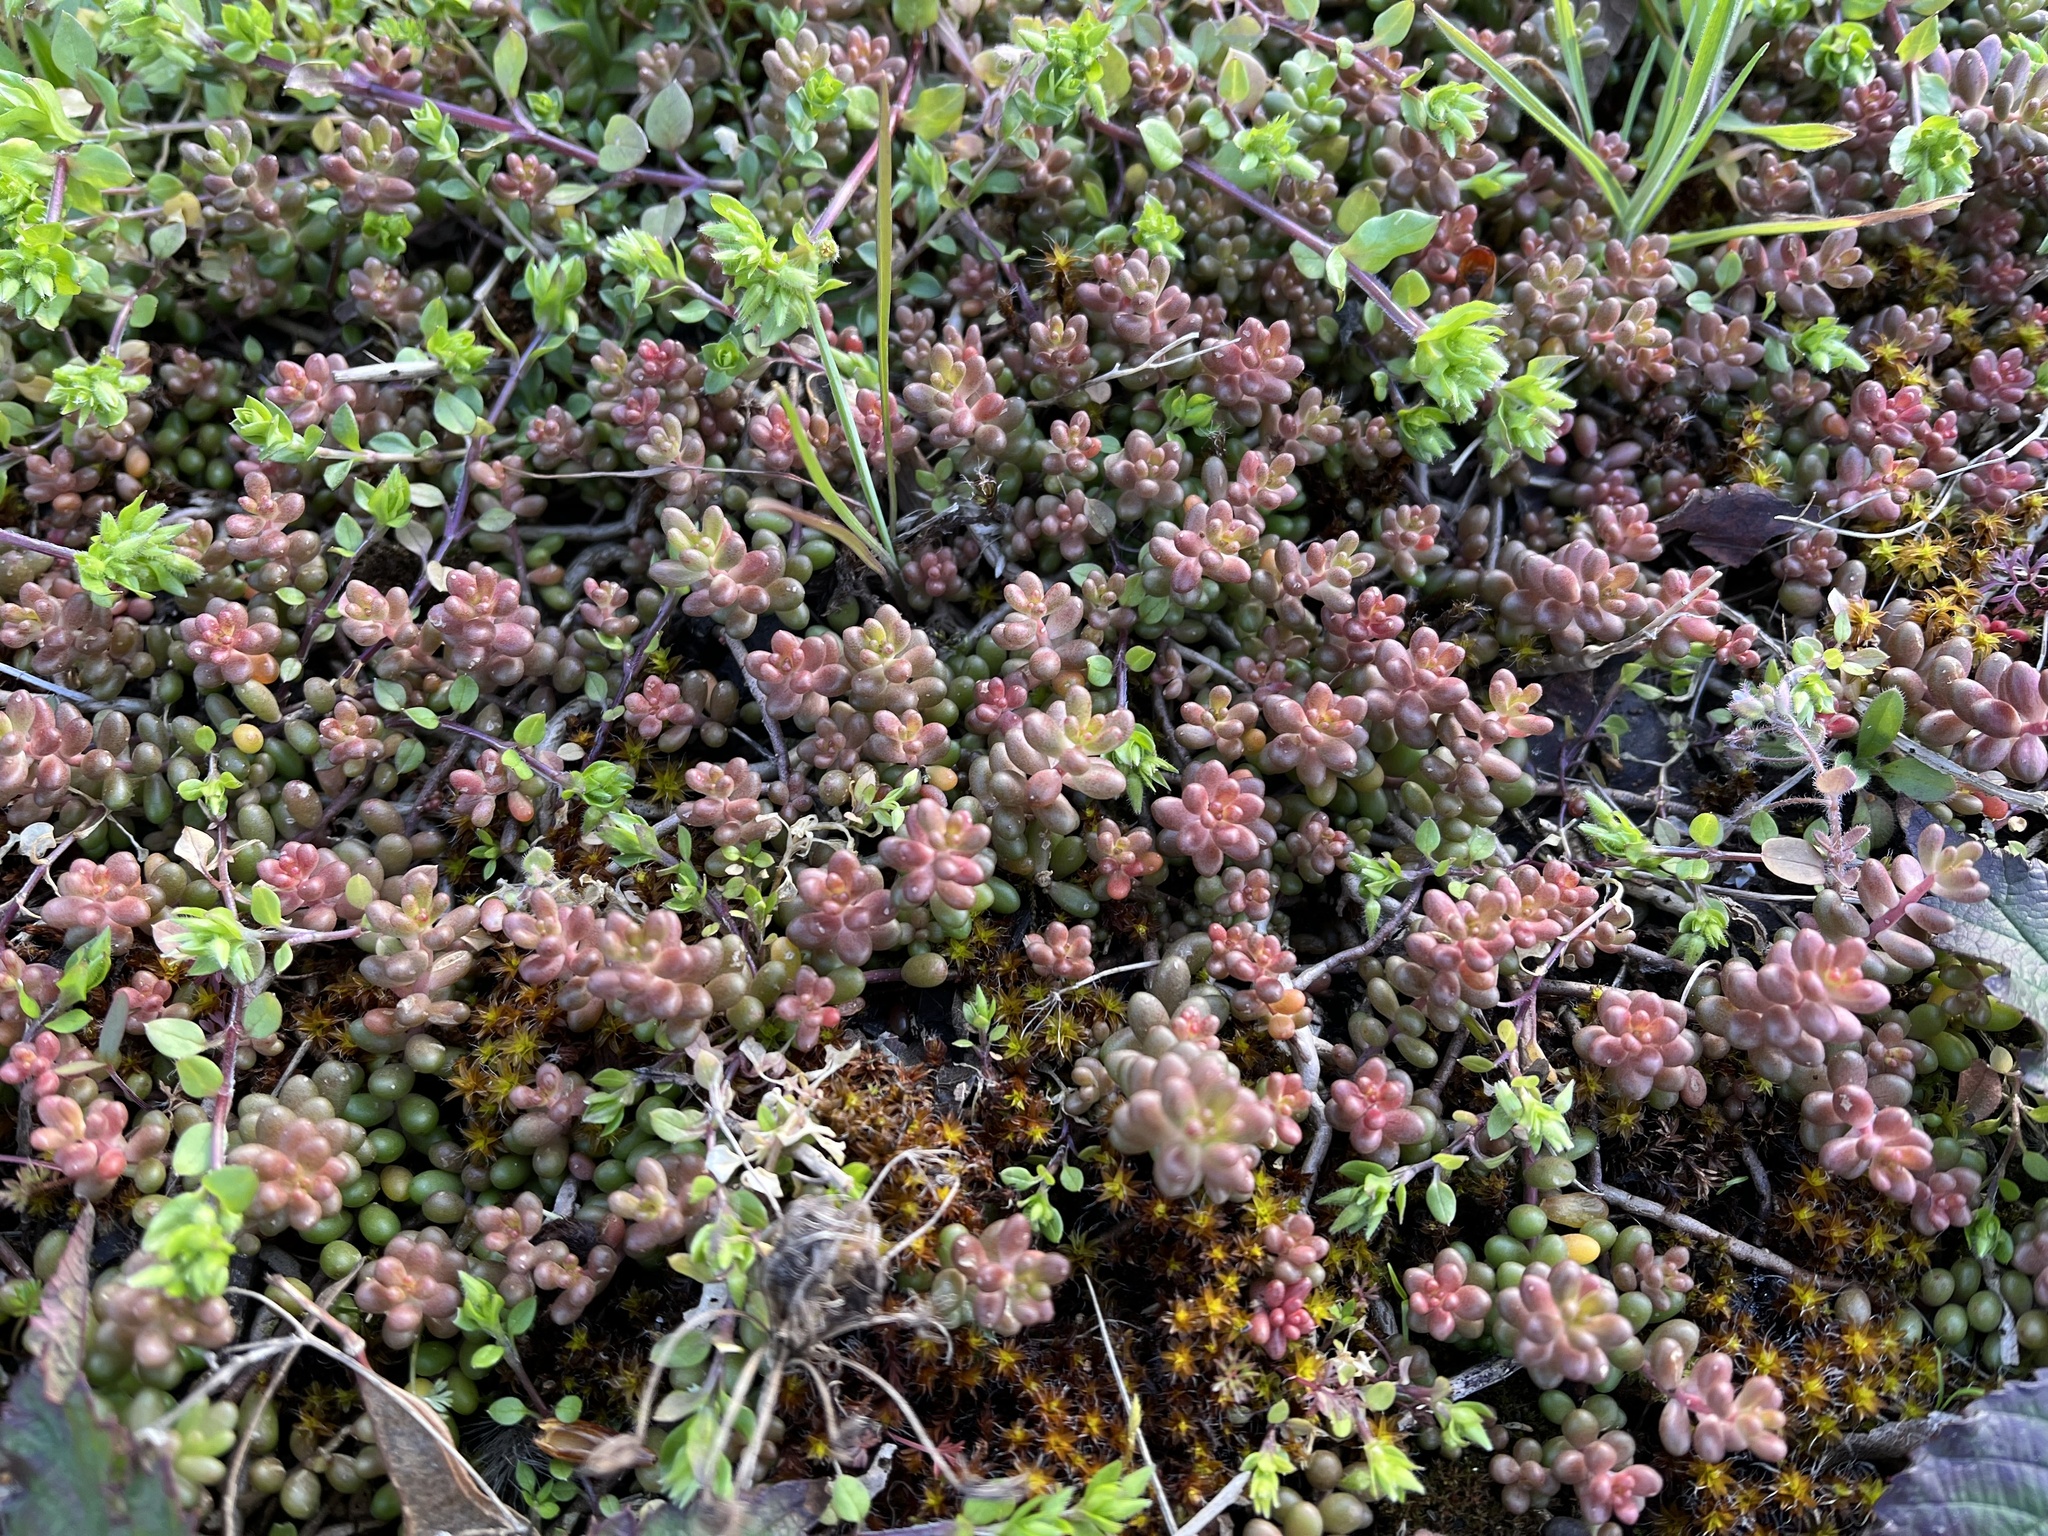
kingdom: Plantae
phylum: Tracheophyta
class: Magnoliopsida
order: Saxifragales
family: Crassulaceae
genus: Sedum
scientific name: Sedum album
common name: White stonecrop
